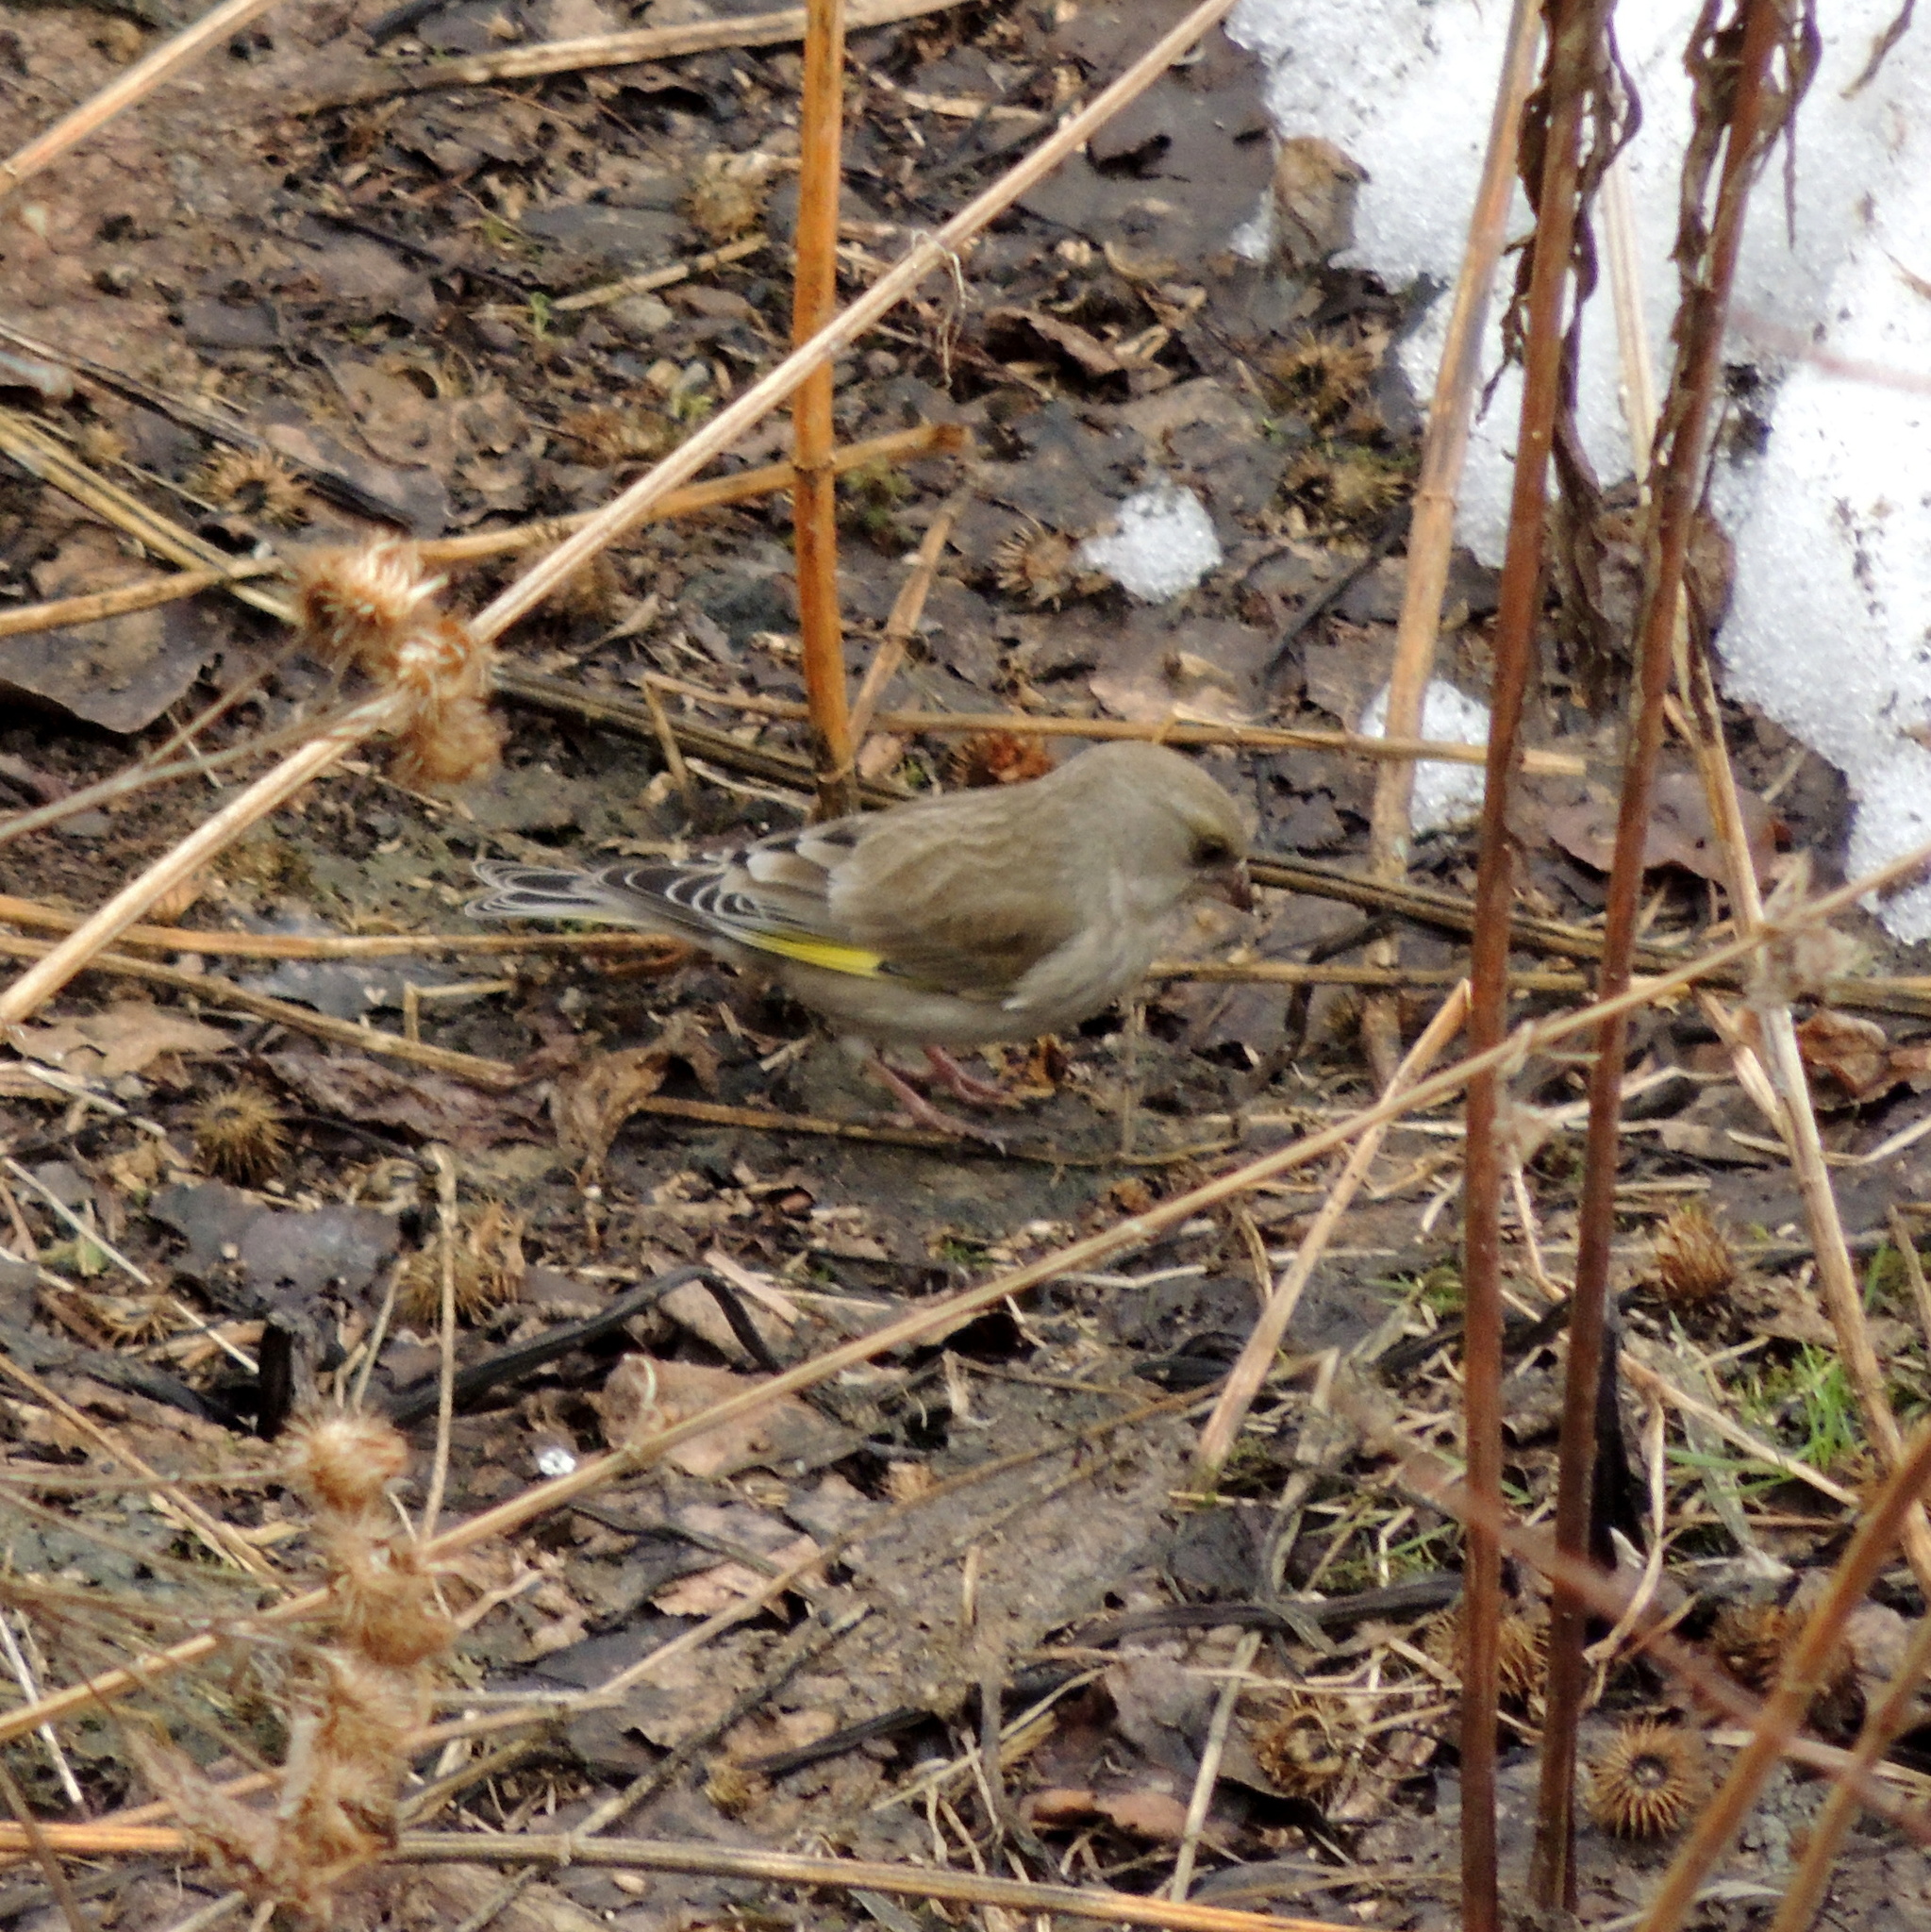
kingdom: Plantae
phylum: Tracheophyta
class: Liliopsida
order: Poales
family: Poaceae
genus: Chloris
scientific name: Chloris chloris
